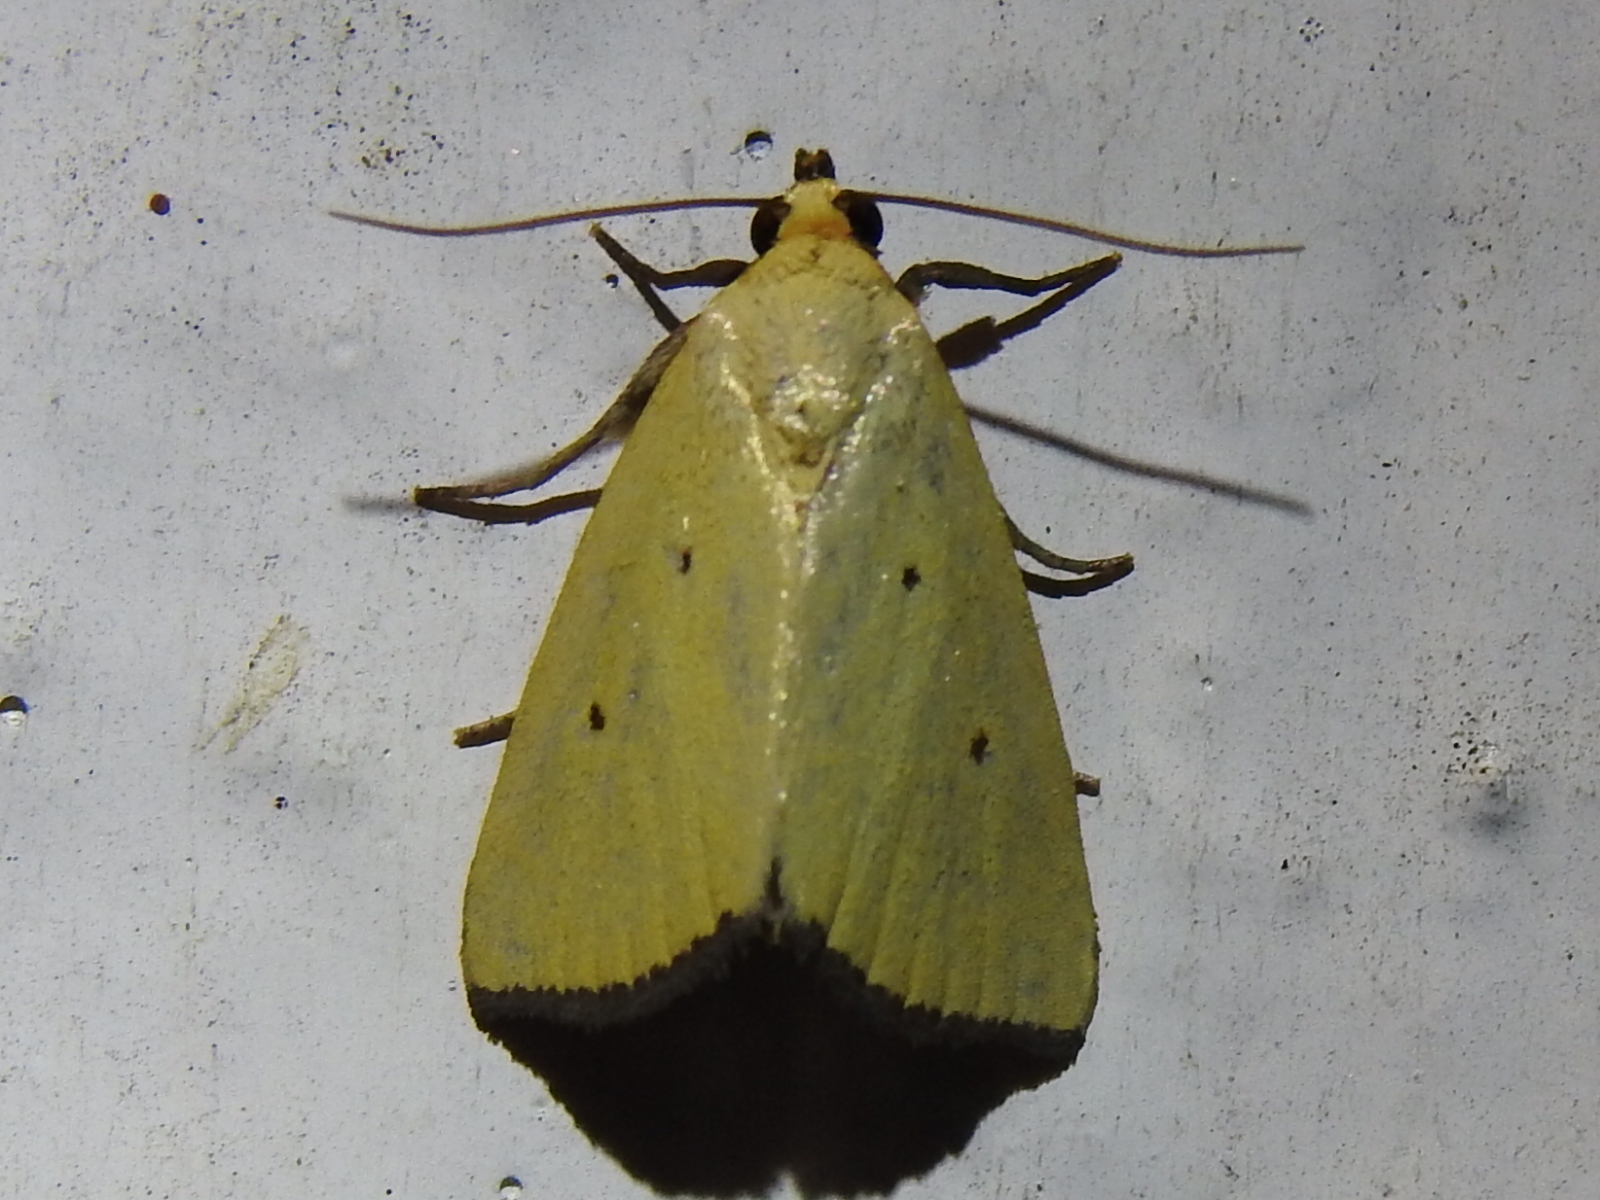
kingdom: Animalia
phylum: Arthropoda
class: Insecta
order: Lepidoptera
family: Noctuidae
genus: Marimatha
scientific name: Marimatha nigrofimbria
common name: Black-bordered lemon moth
